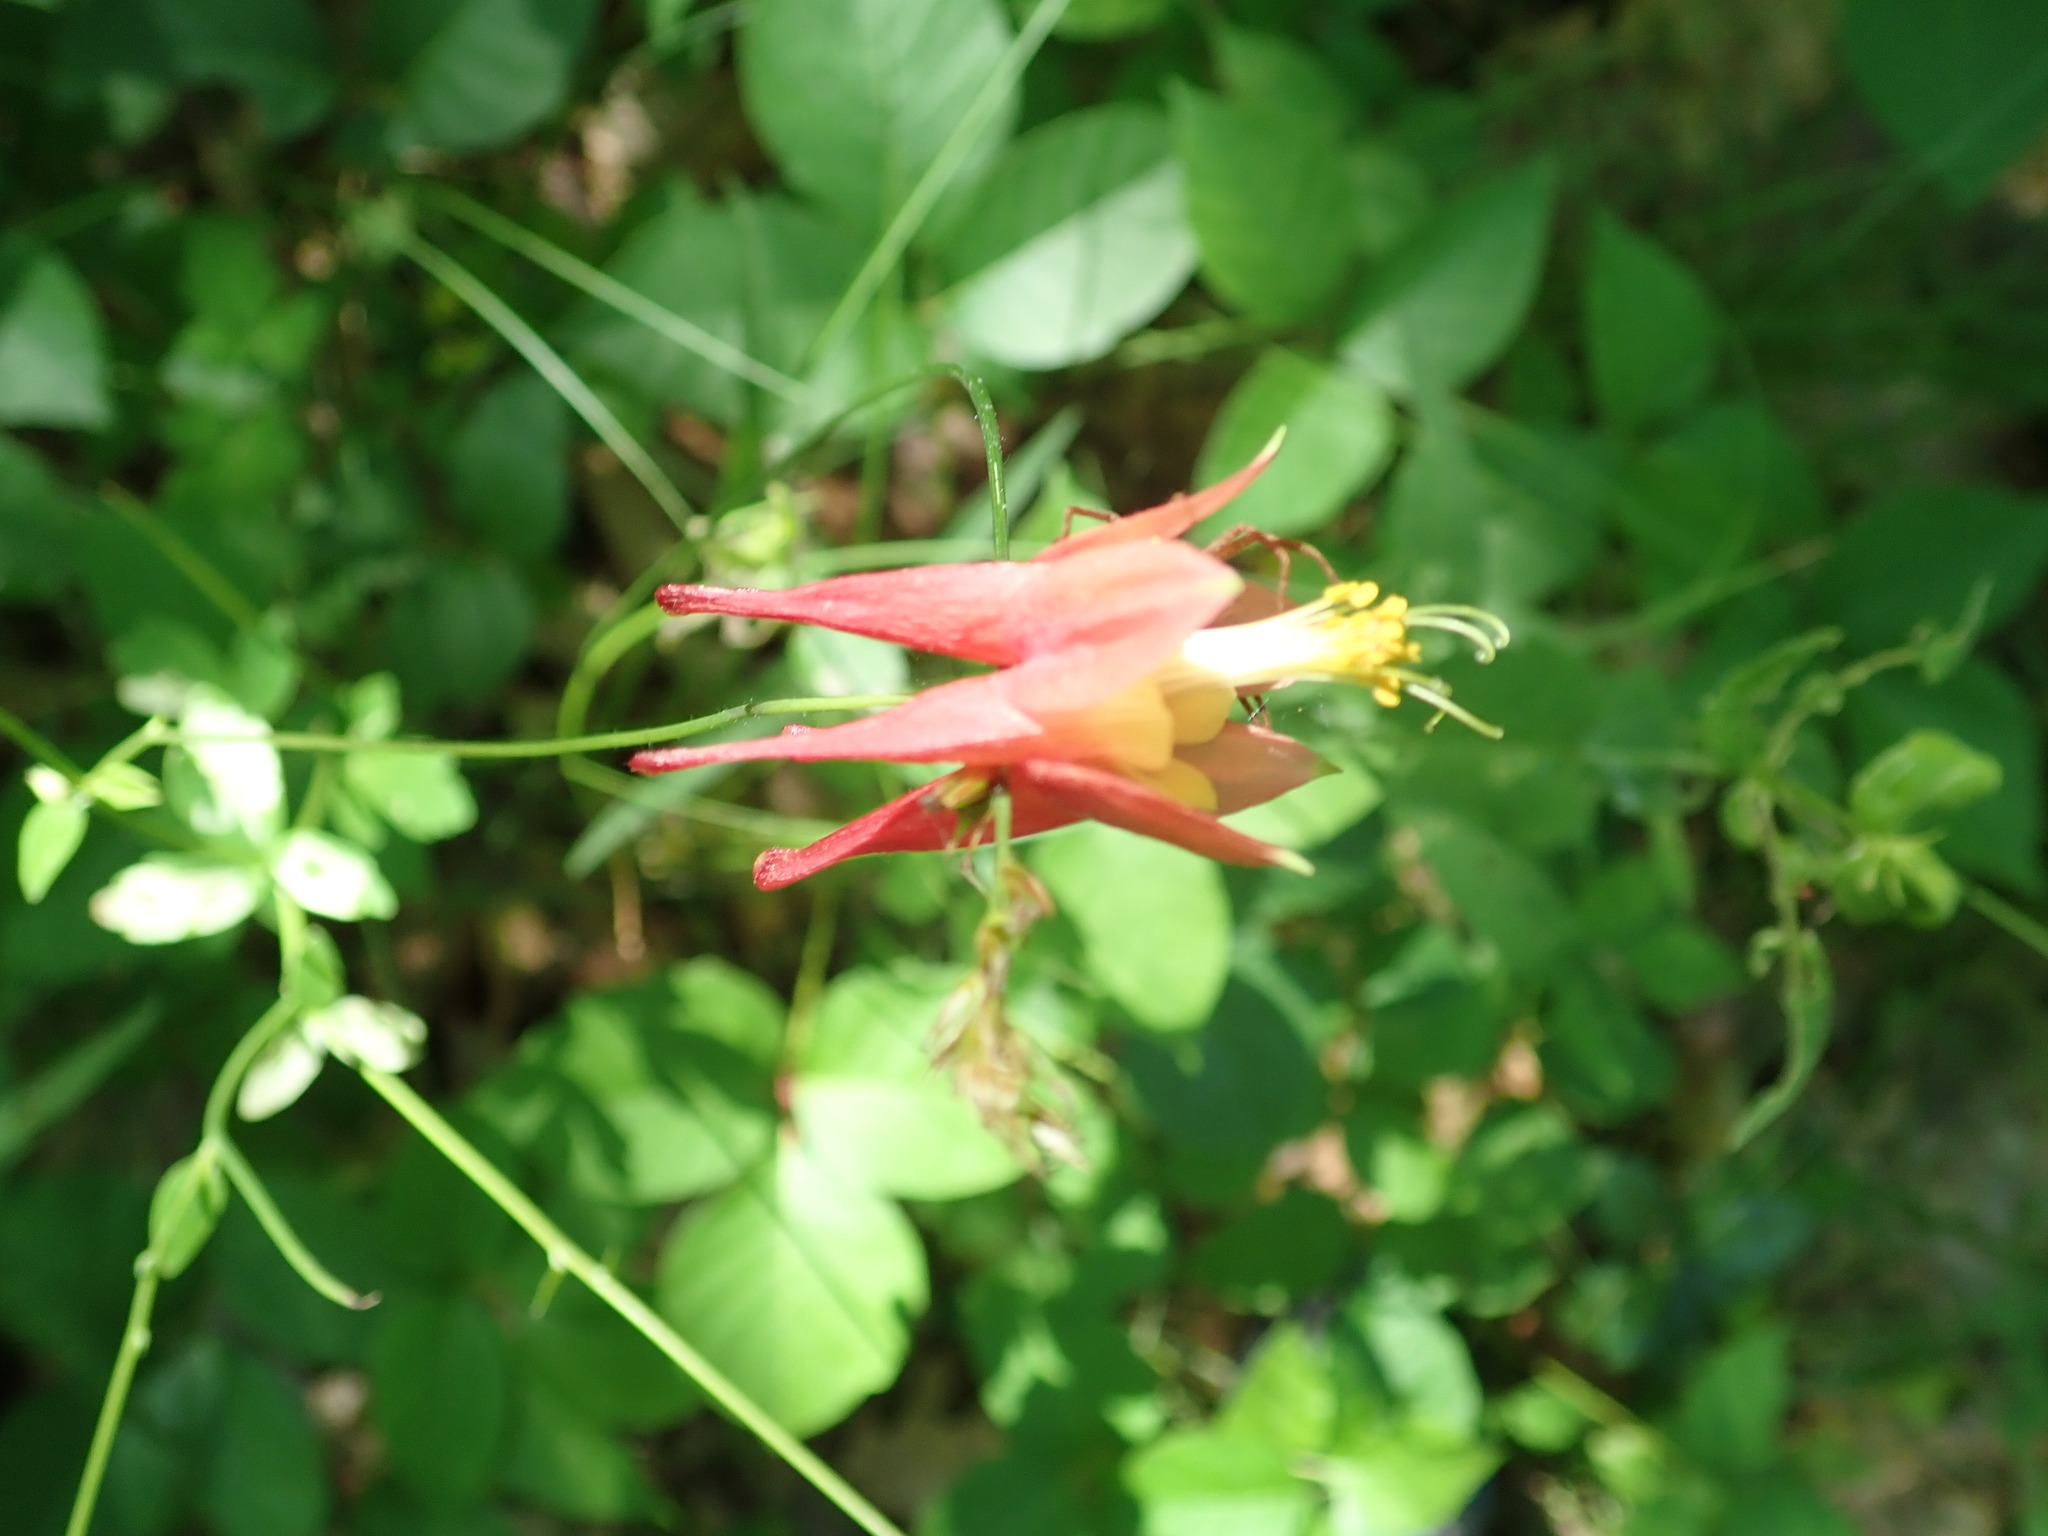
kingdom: Plantae
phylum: Tracheophyta
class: Magnoliopsida
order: Ranunculales
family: Ranunculaceae
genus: Aquilegia
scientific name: Aquilegia canadensis
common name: American columbine
